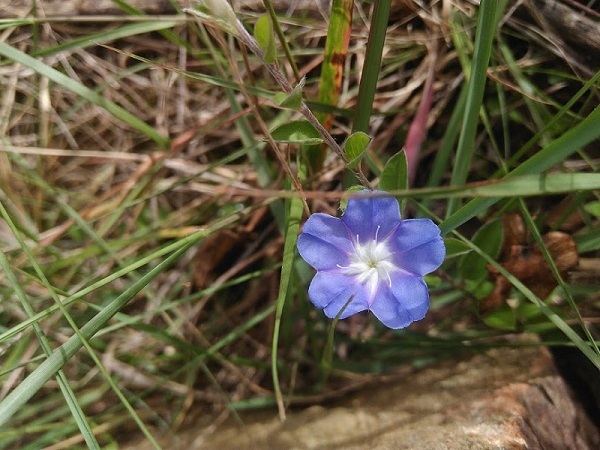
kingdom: Plantae
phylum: Tracheophyta
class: Magnoliopsida
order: Solanales
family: Convolvulaceae
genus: Evolvulus
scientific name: Evolvulus bogotensis
